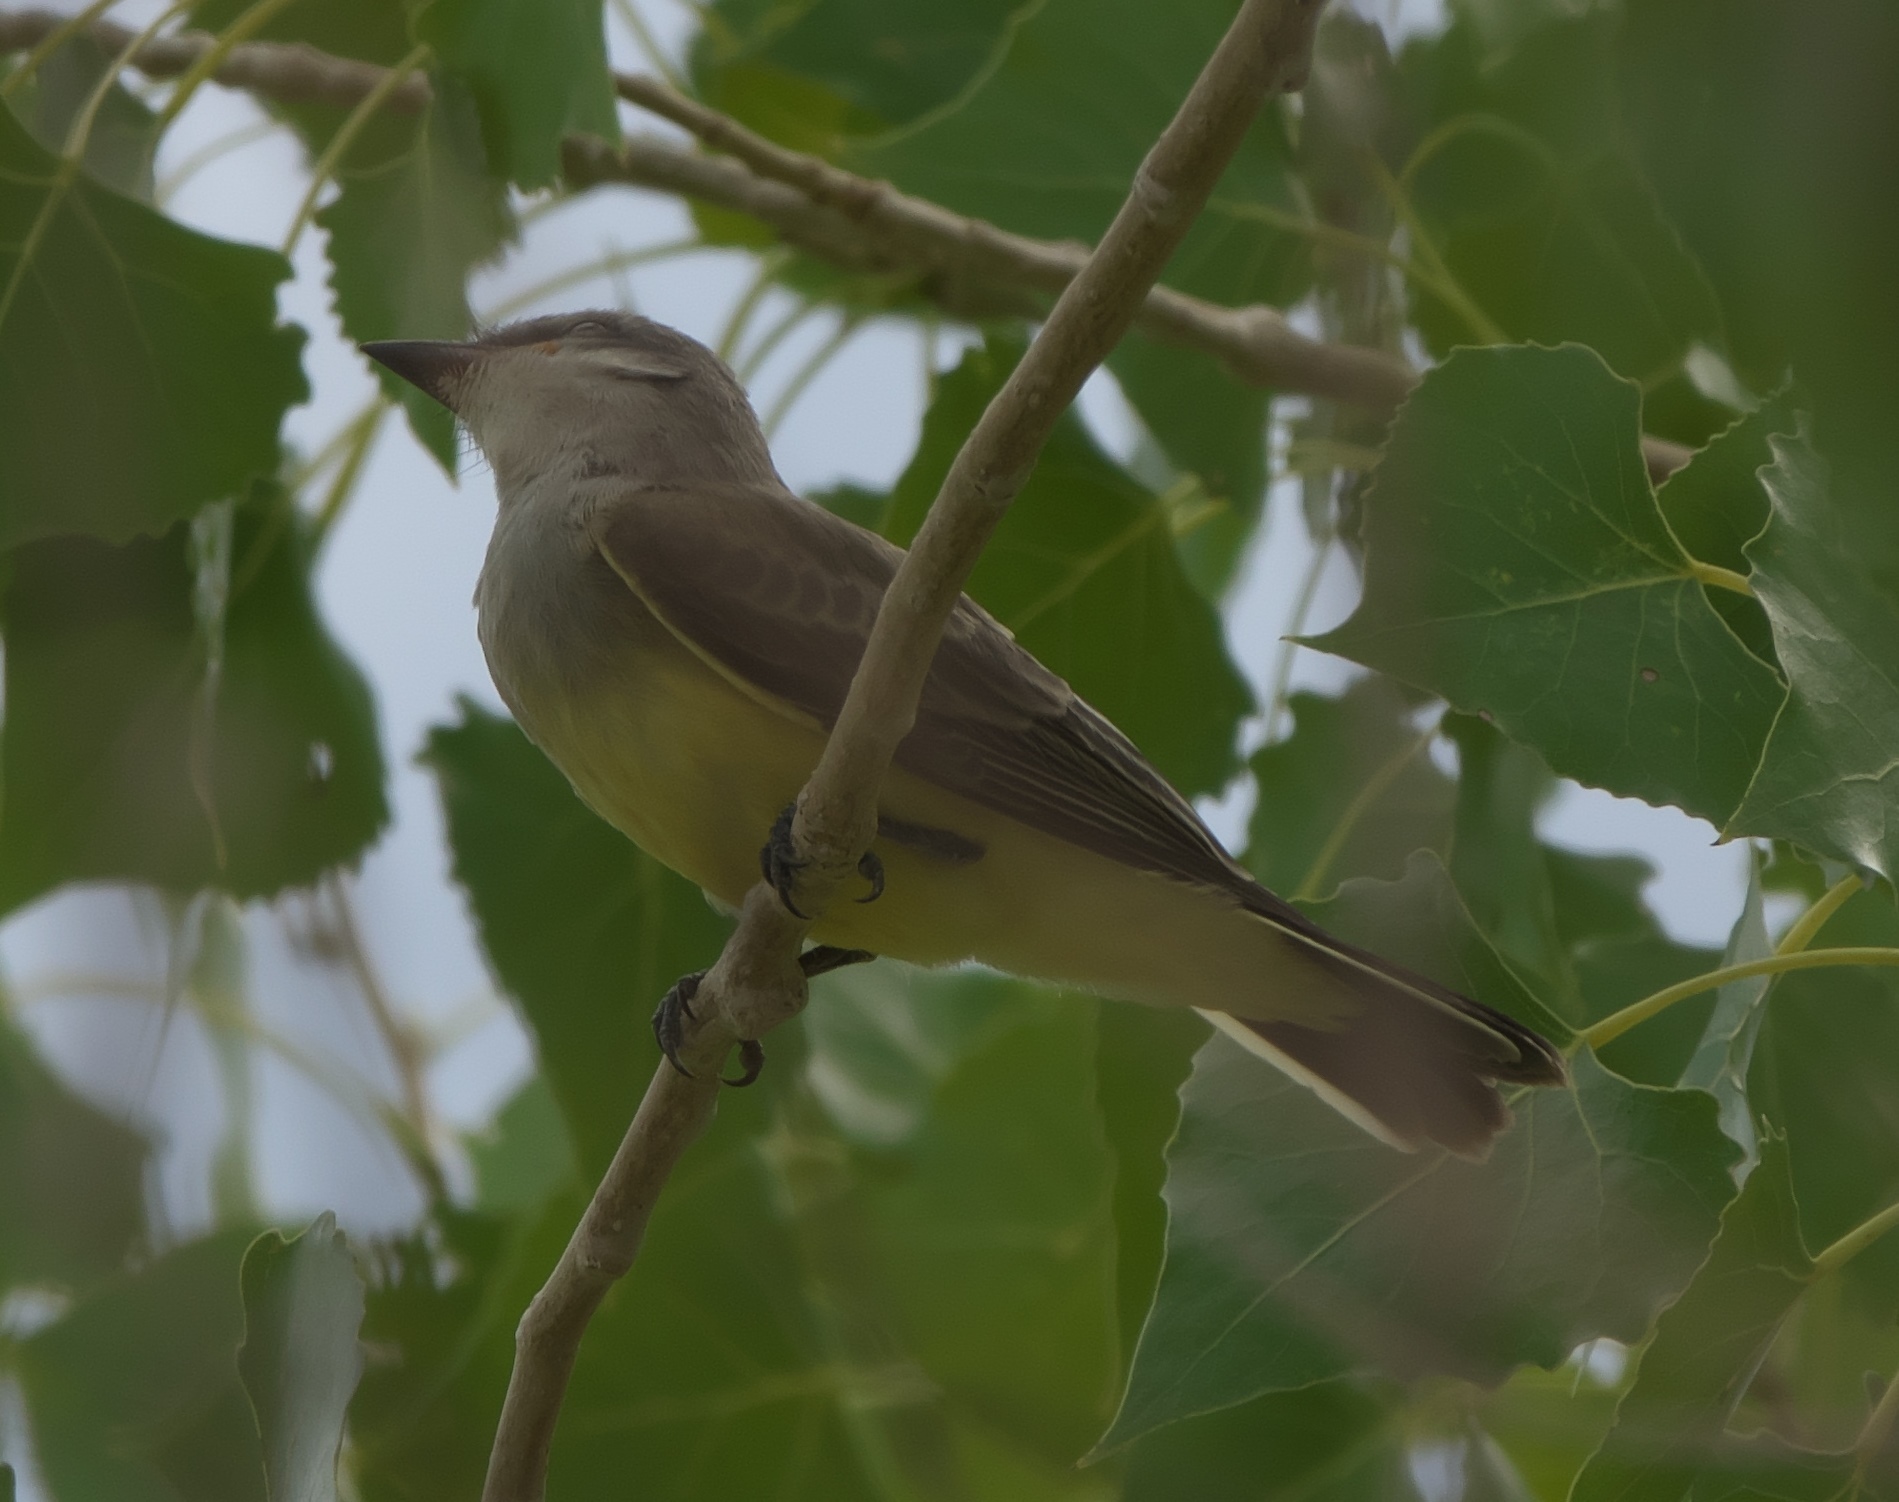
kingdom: Animalia
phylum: Chordata
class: Aves
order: Passeriformes
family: Tyrannidae
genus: Tyrannus
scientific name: Tyrannus verticalis
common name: Western kingbird
